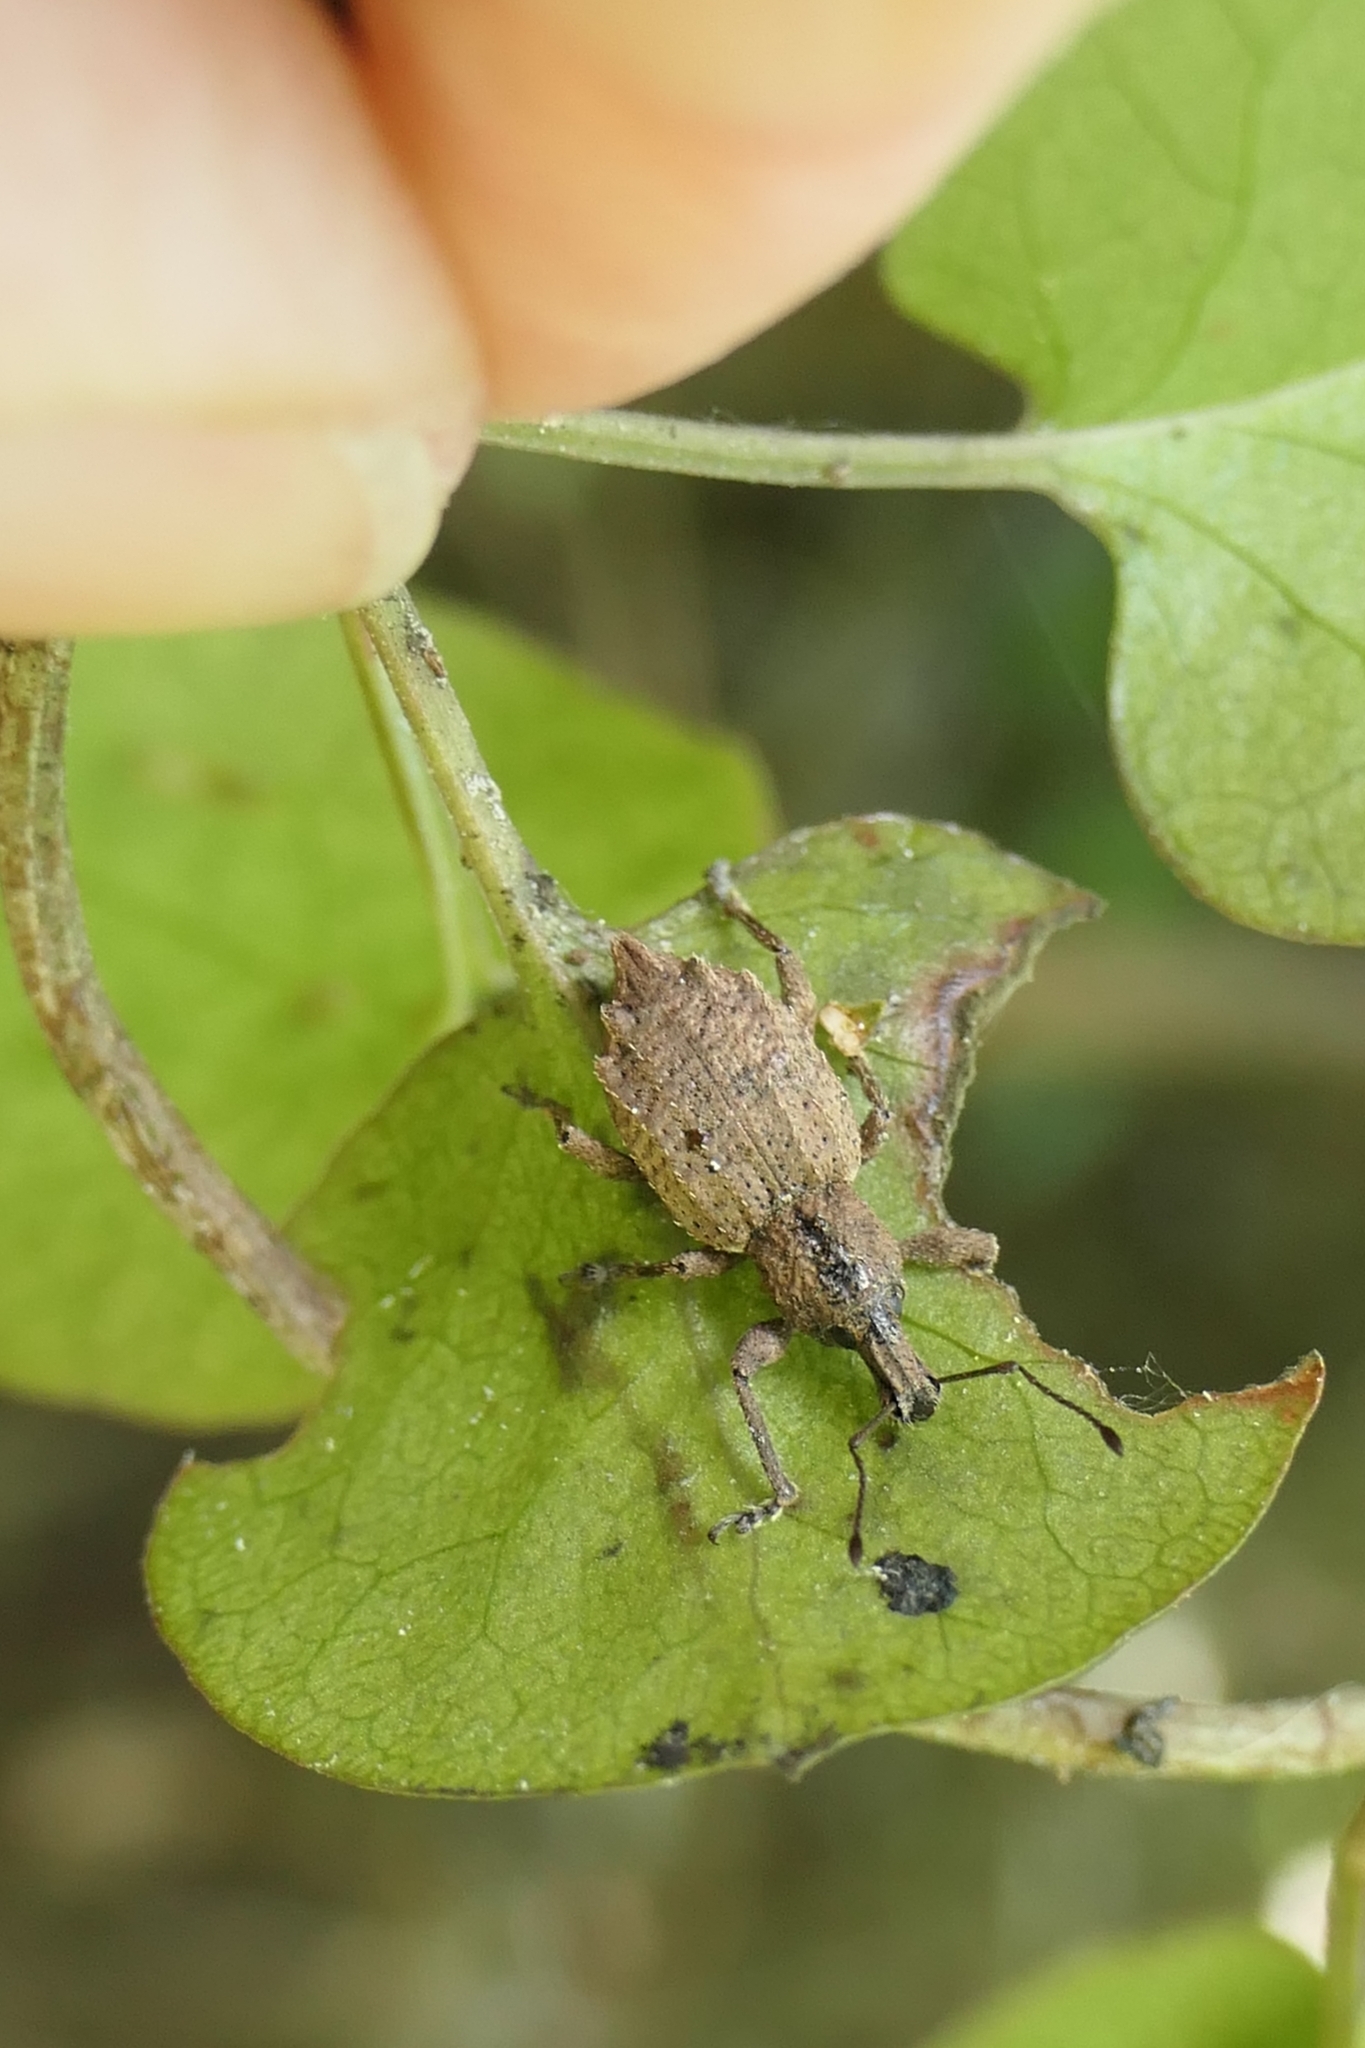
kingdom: Animalia
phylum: Arthropoda
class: Insecta
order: Coleoptera
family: Curculionidae
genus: Chalepistes
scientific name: Chalepistes rhesus
